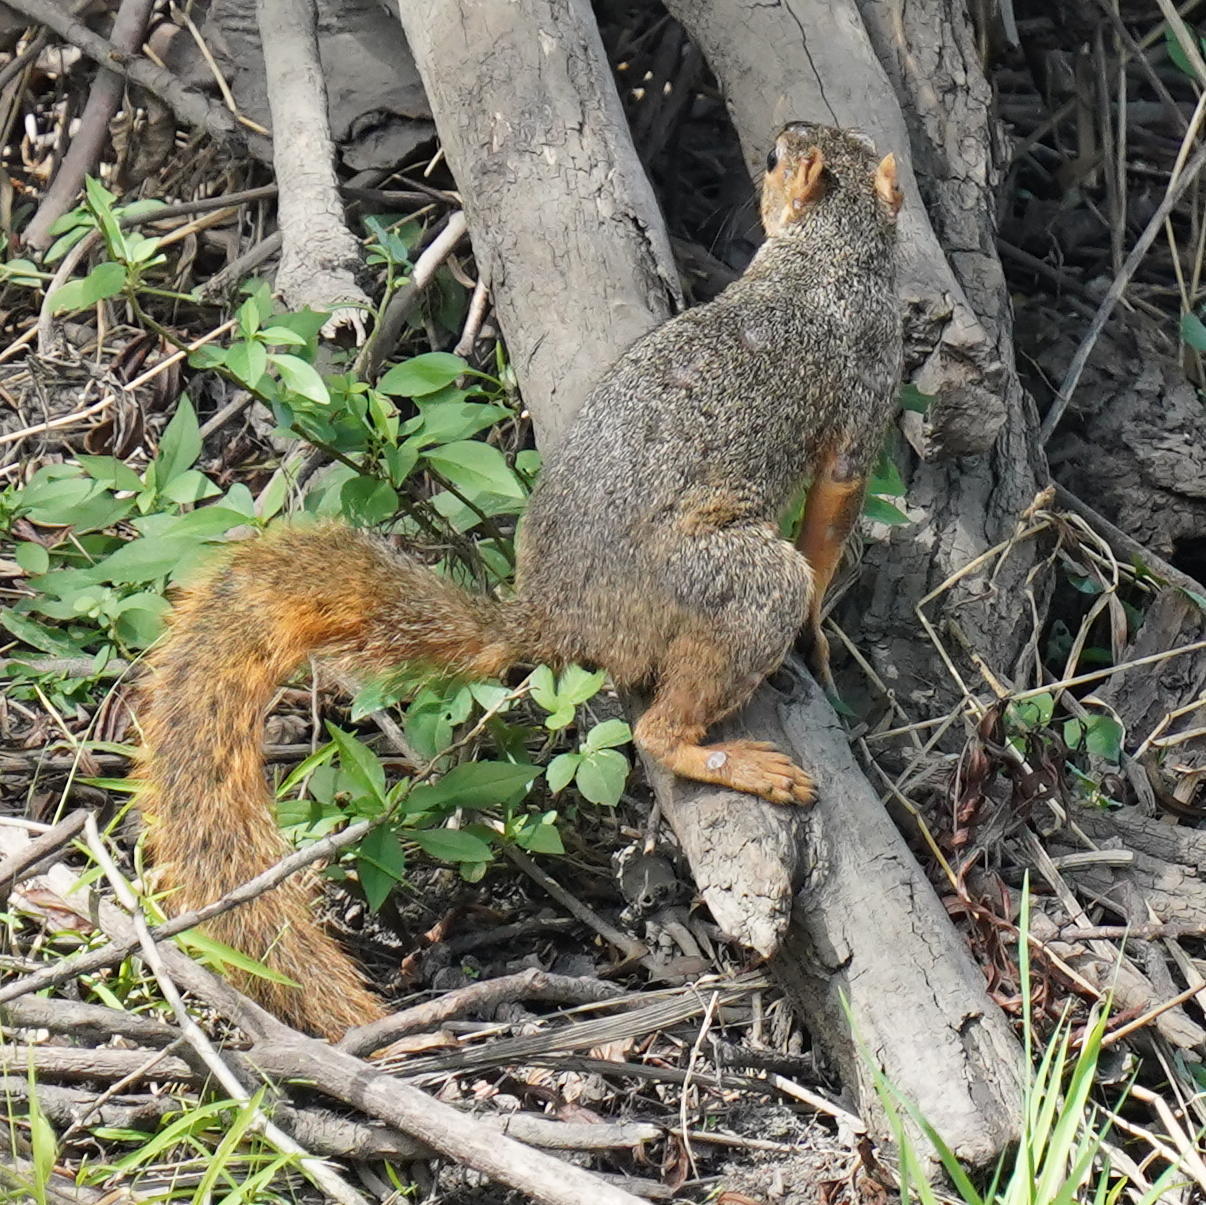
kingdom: Animalia
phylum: Chordata
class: Mammalia
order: Rodentia
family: Sciuridae
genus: Sciurus
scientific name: Sciurus niger
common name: Fox squirrel
